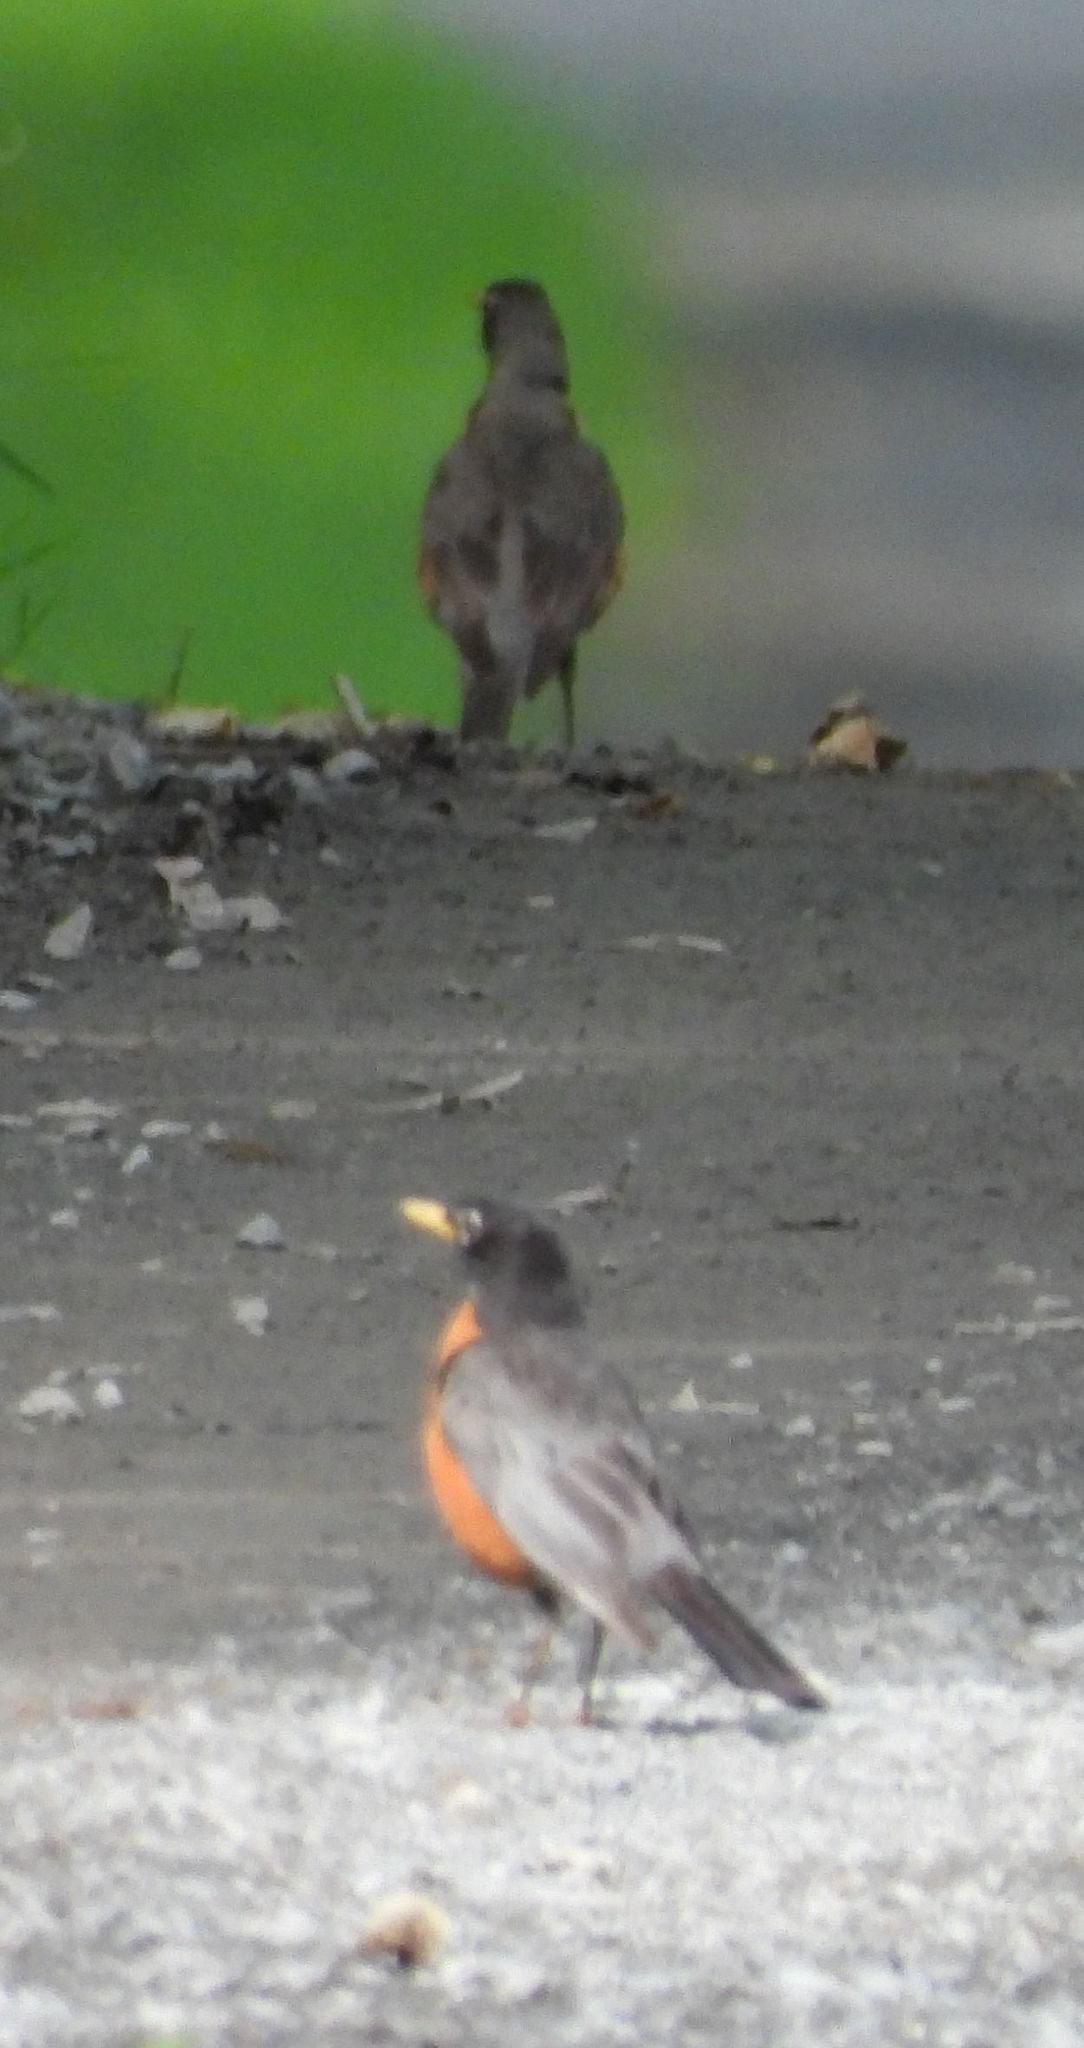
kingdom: Animalia
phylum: Chordata
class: Aves
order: Passeriformes
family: Turdidae
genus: Turdus
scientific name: Turdus migratorius
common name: American robin
